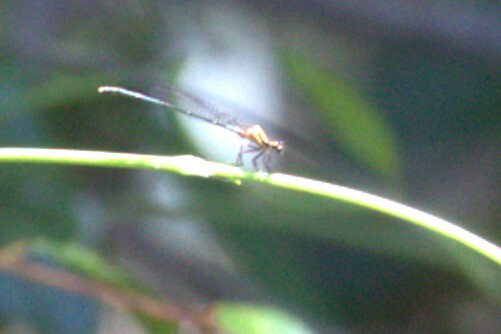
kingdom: Animalia
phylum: Arthropoda
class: Insecta
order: Odonata
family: Platycnemididae
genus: Nososticta
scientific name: Nososticta solida
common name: Orange threadtail
